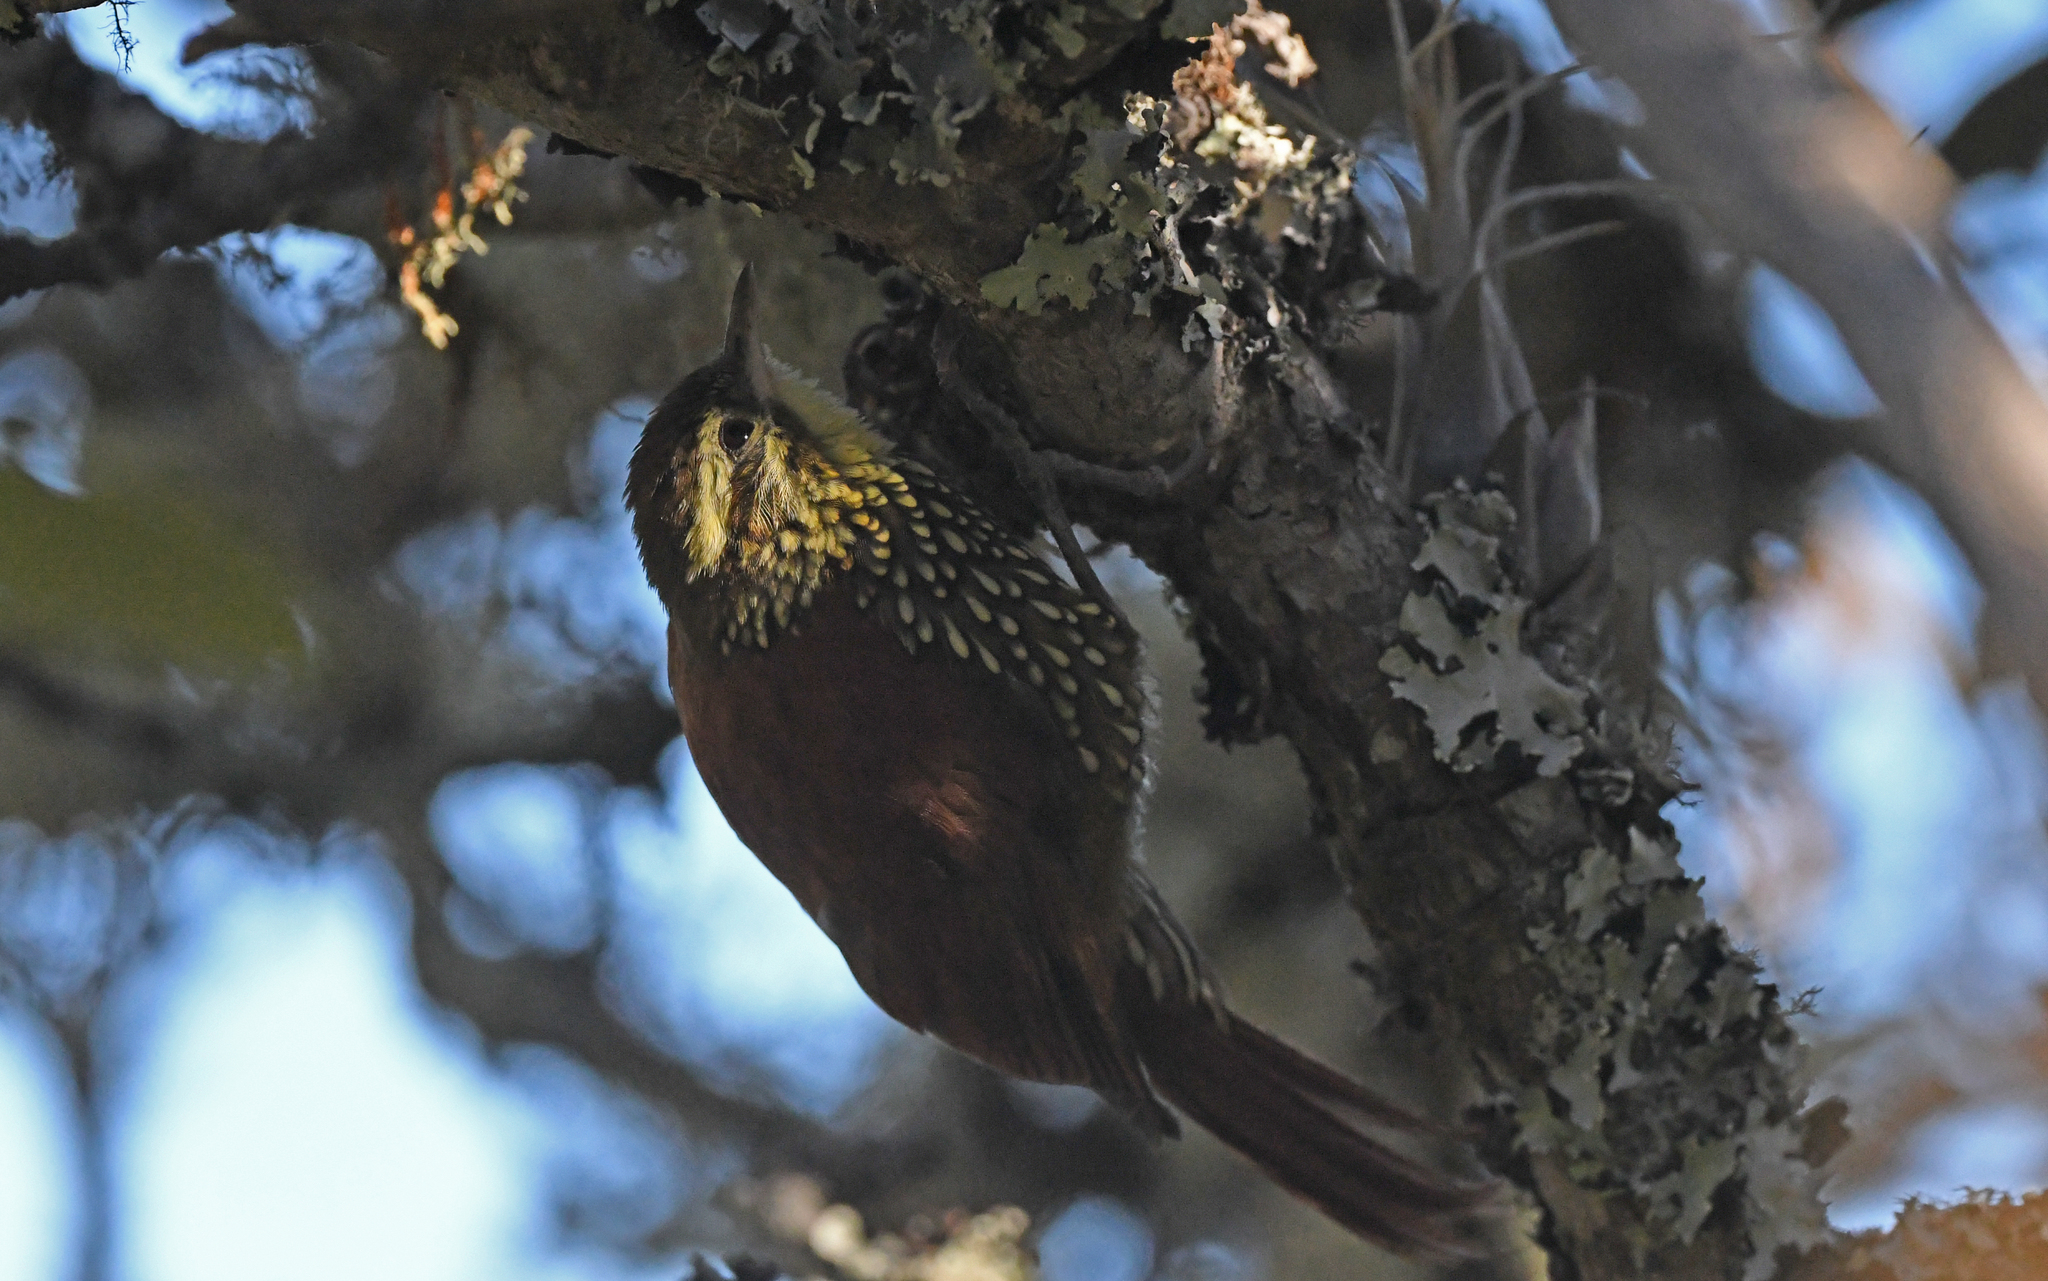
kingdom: Animalia
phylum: Chordata
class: Aves
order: Passeriformes
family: Furnariidae
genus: Margarornis
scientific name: Margarornis squamiger
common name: Pearled treerunner
